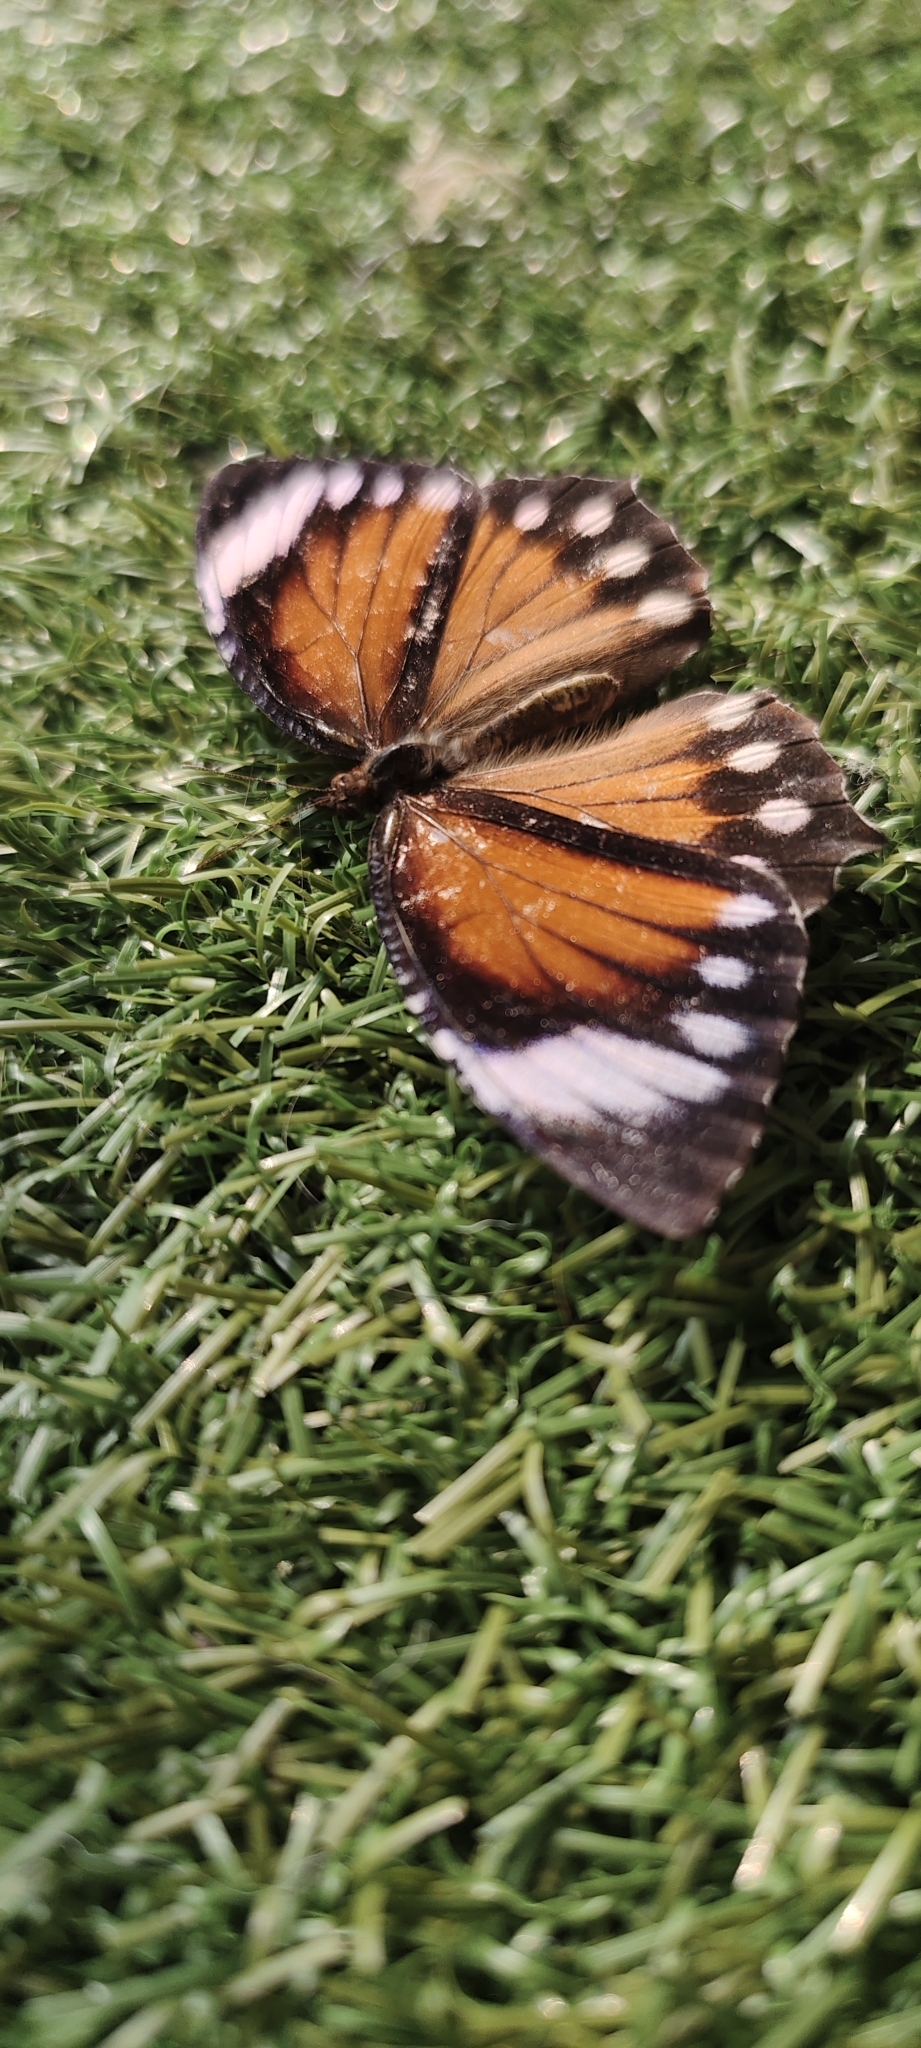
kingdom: Animalia
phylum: Arthropoda
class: Insecta
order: Lepidoptera
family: Nymphalidae
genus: Elymnias
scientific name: Elymnias hypermnestra
